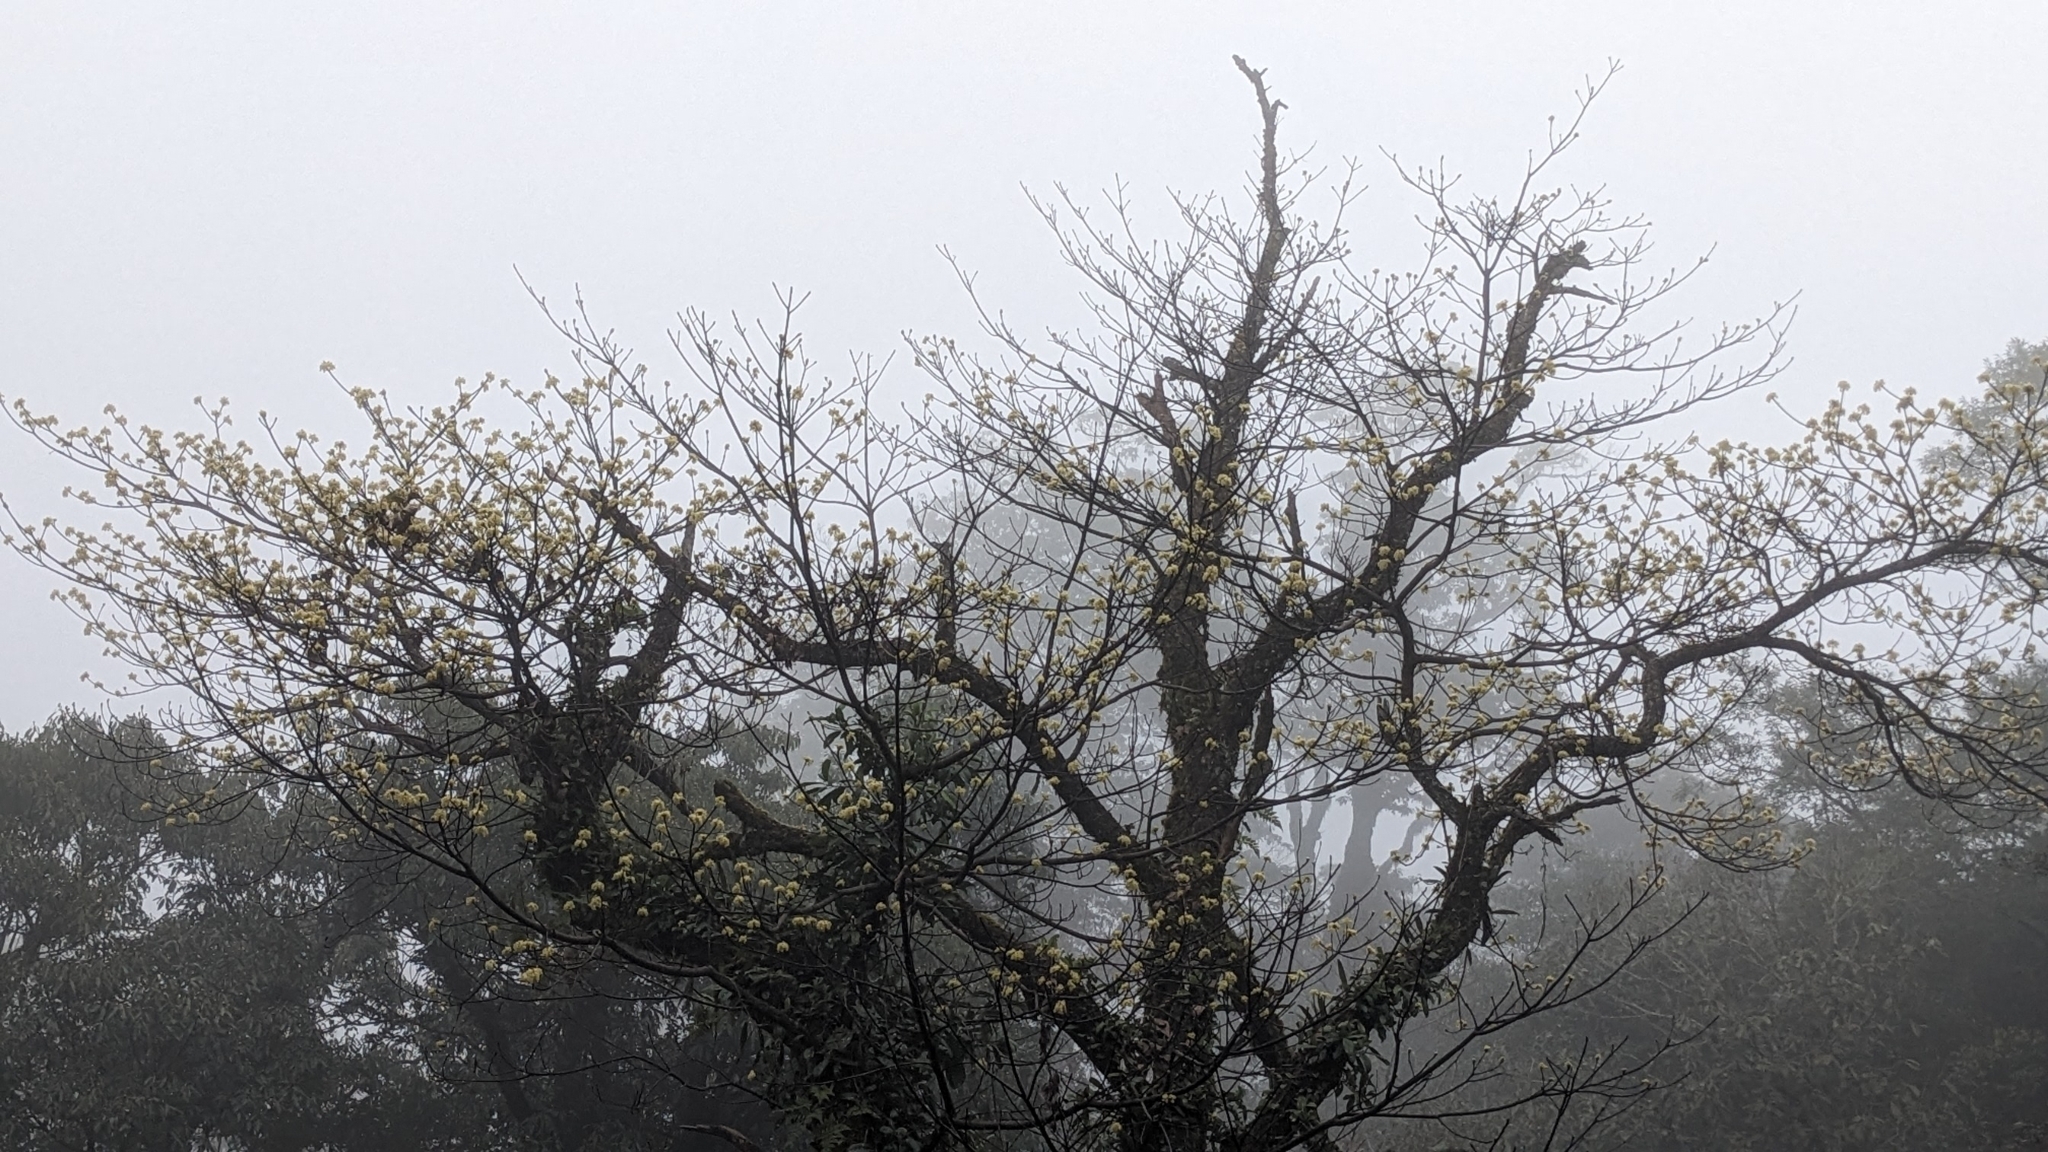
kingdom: Plantae
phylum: Tracheophyta
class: Magnoliopsida
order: Laurales
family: Lauraceae
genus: Sassafras
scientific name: Sassafras randaiense
